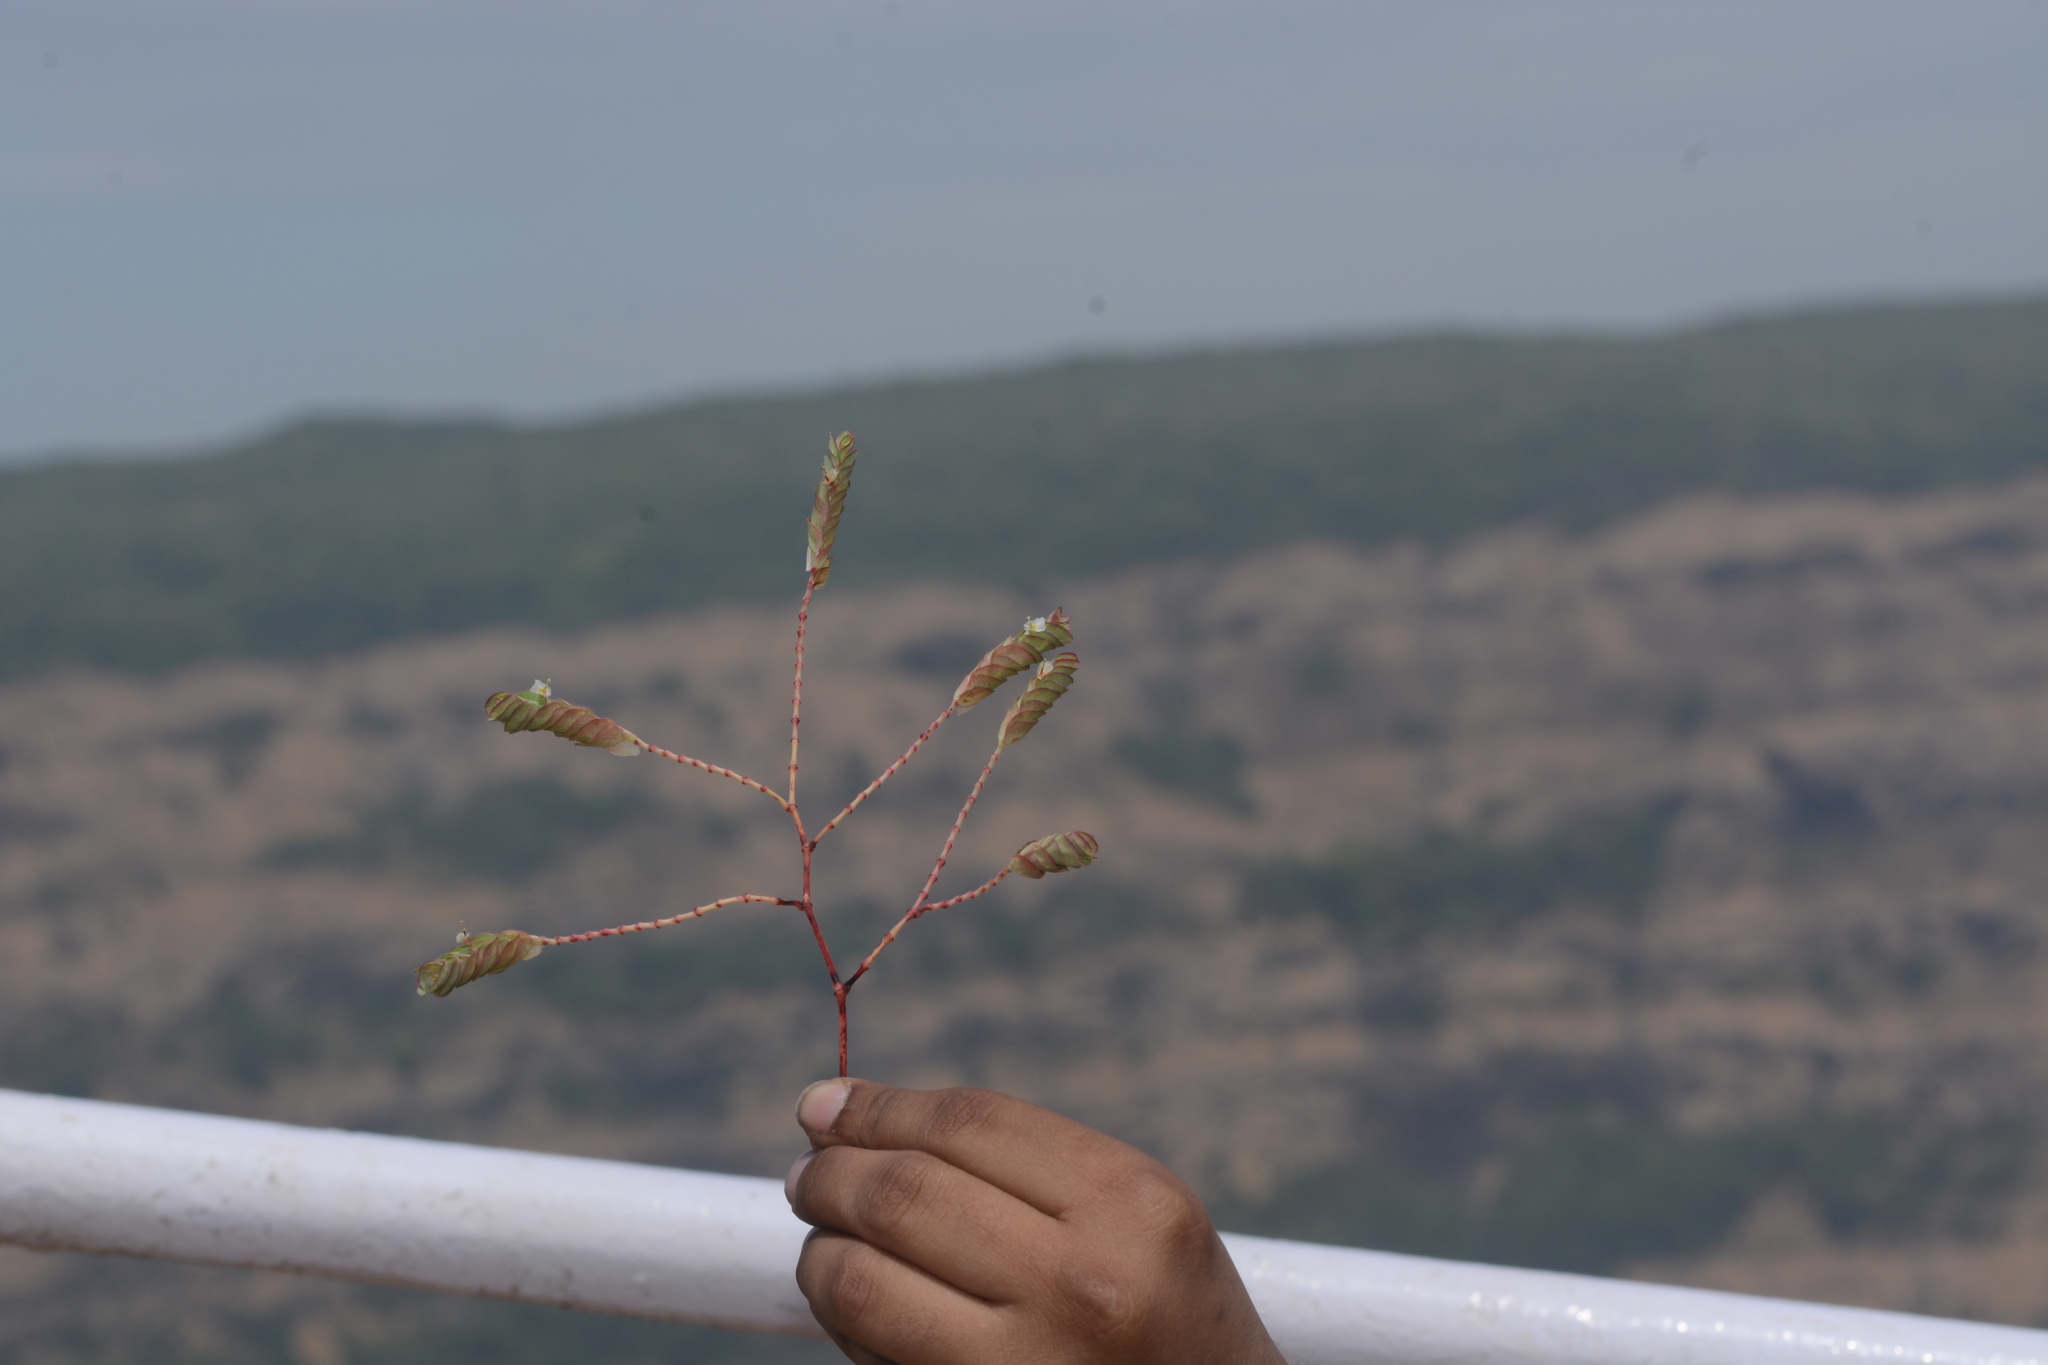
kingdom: Plantae
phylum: Tracheophyta
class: Magnoliopsida
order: Malpighiales
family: Euphorbiaceae
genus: Euphorbia
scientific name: Euphorbia pycnostegia
